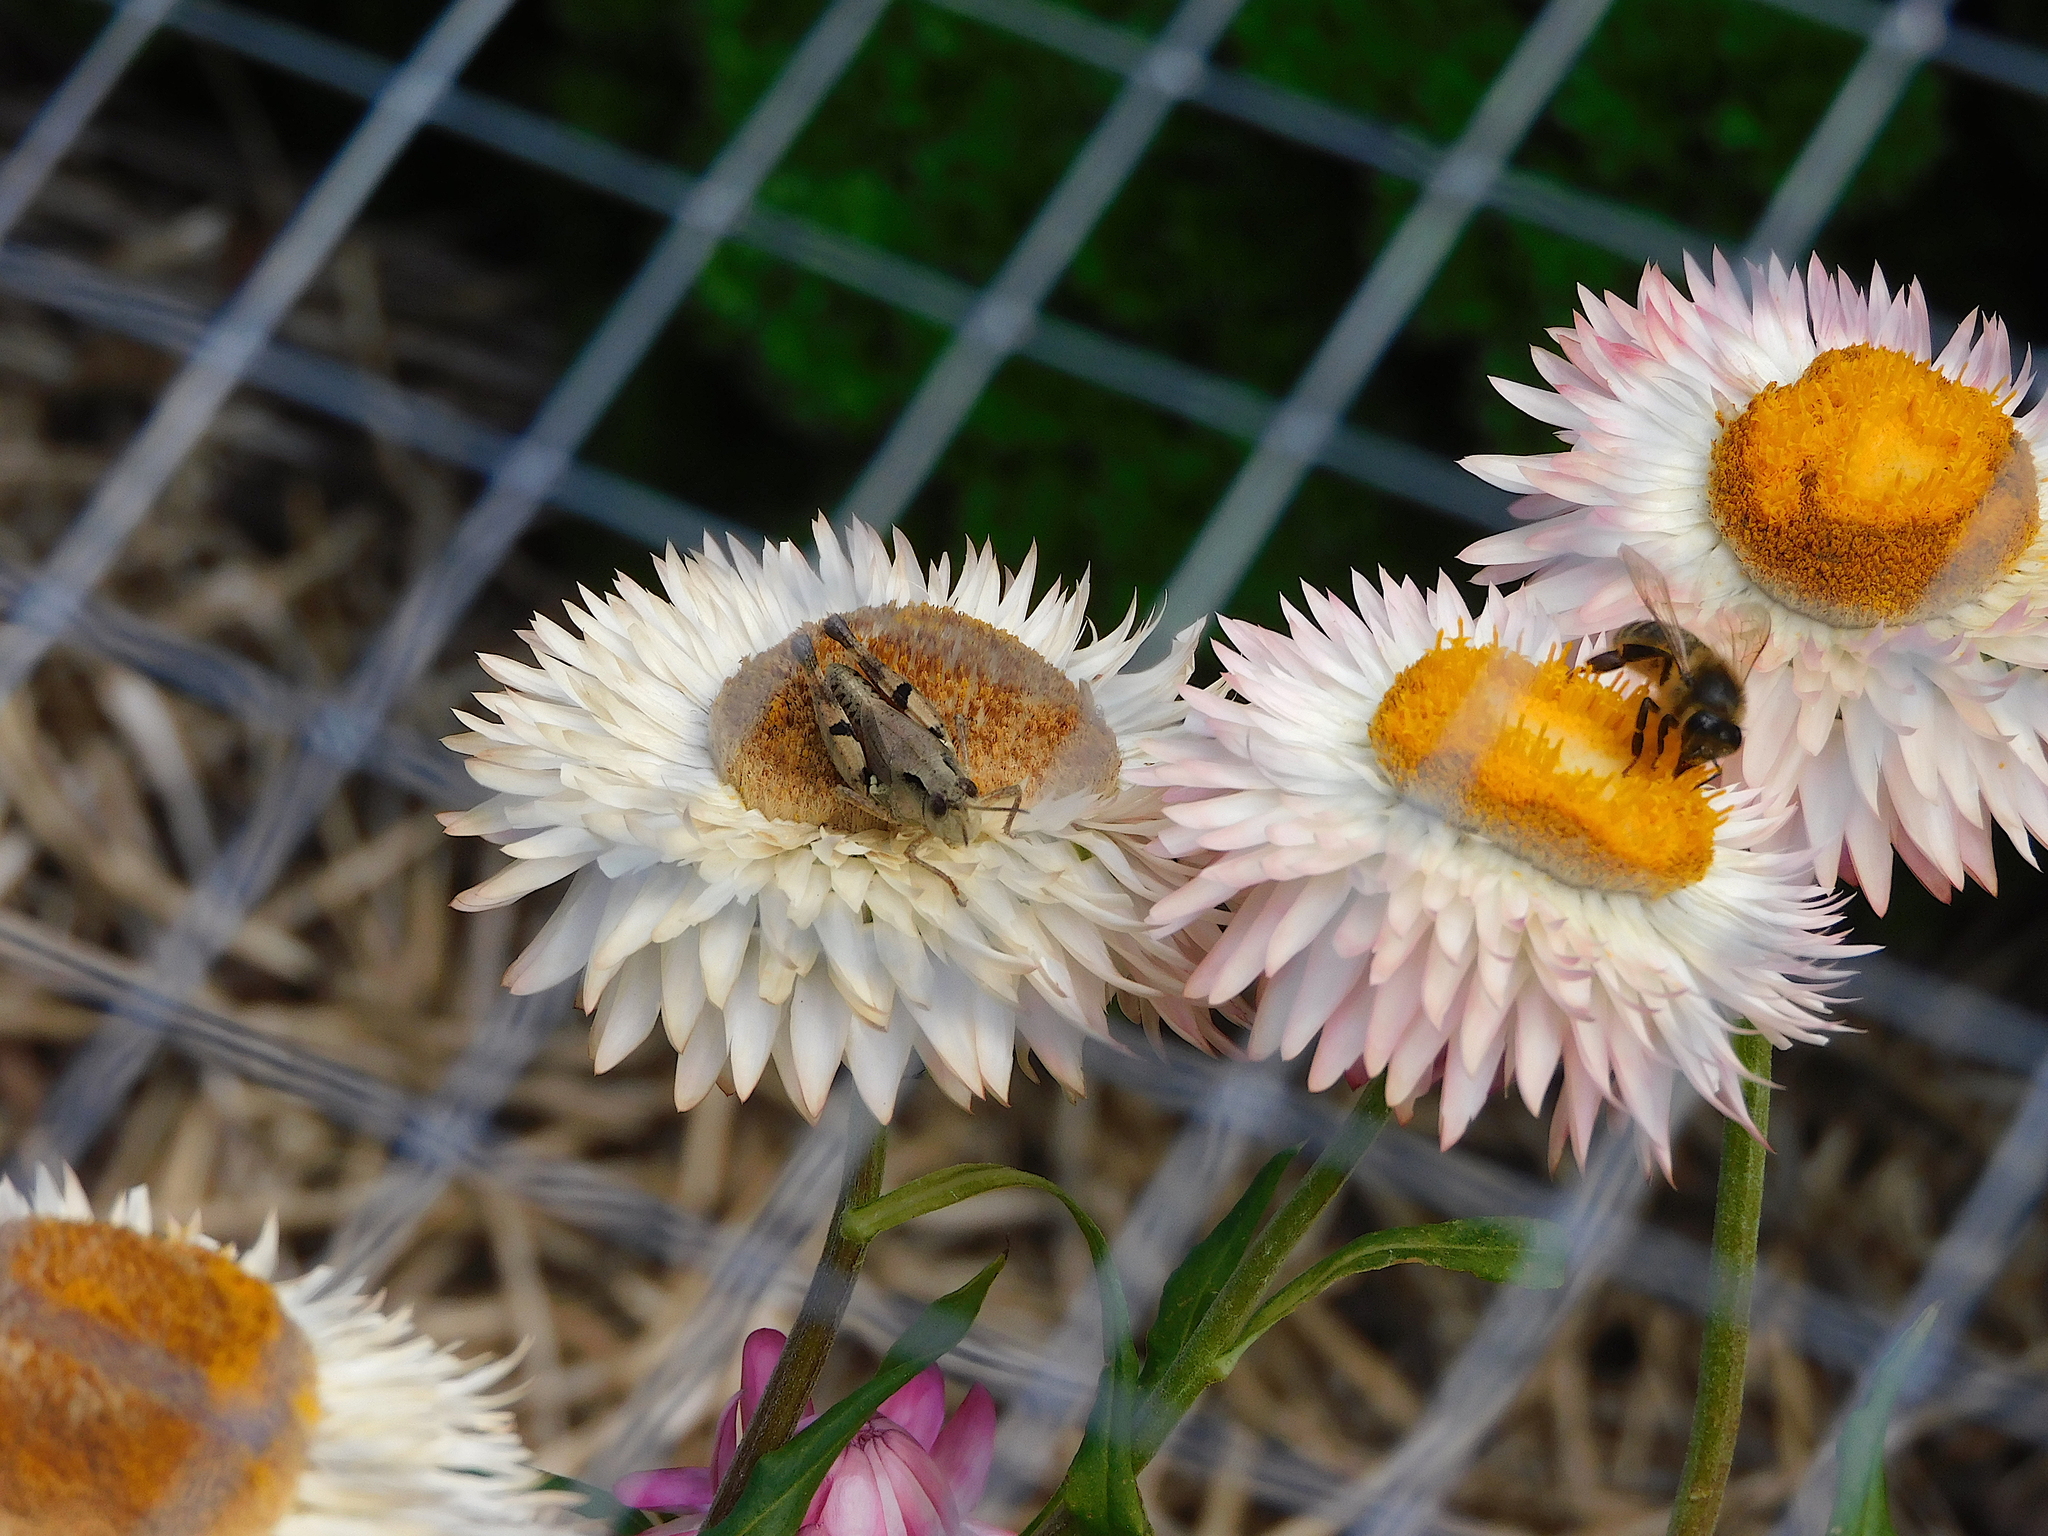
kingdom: Animalia
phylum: Arthropoda
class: Insecta
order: Orthoptera
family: Acrididae
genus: Phaulacridium
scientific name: Phaulacridium vittatum
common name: Wingless grasshopper
